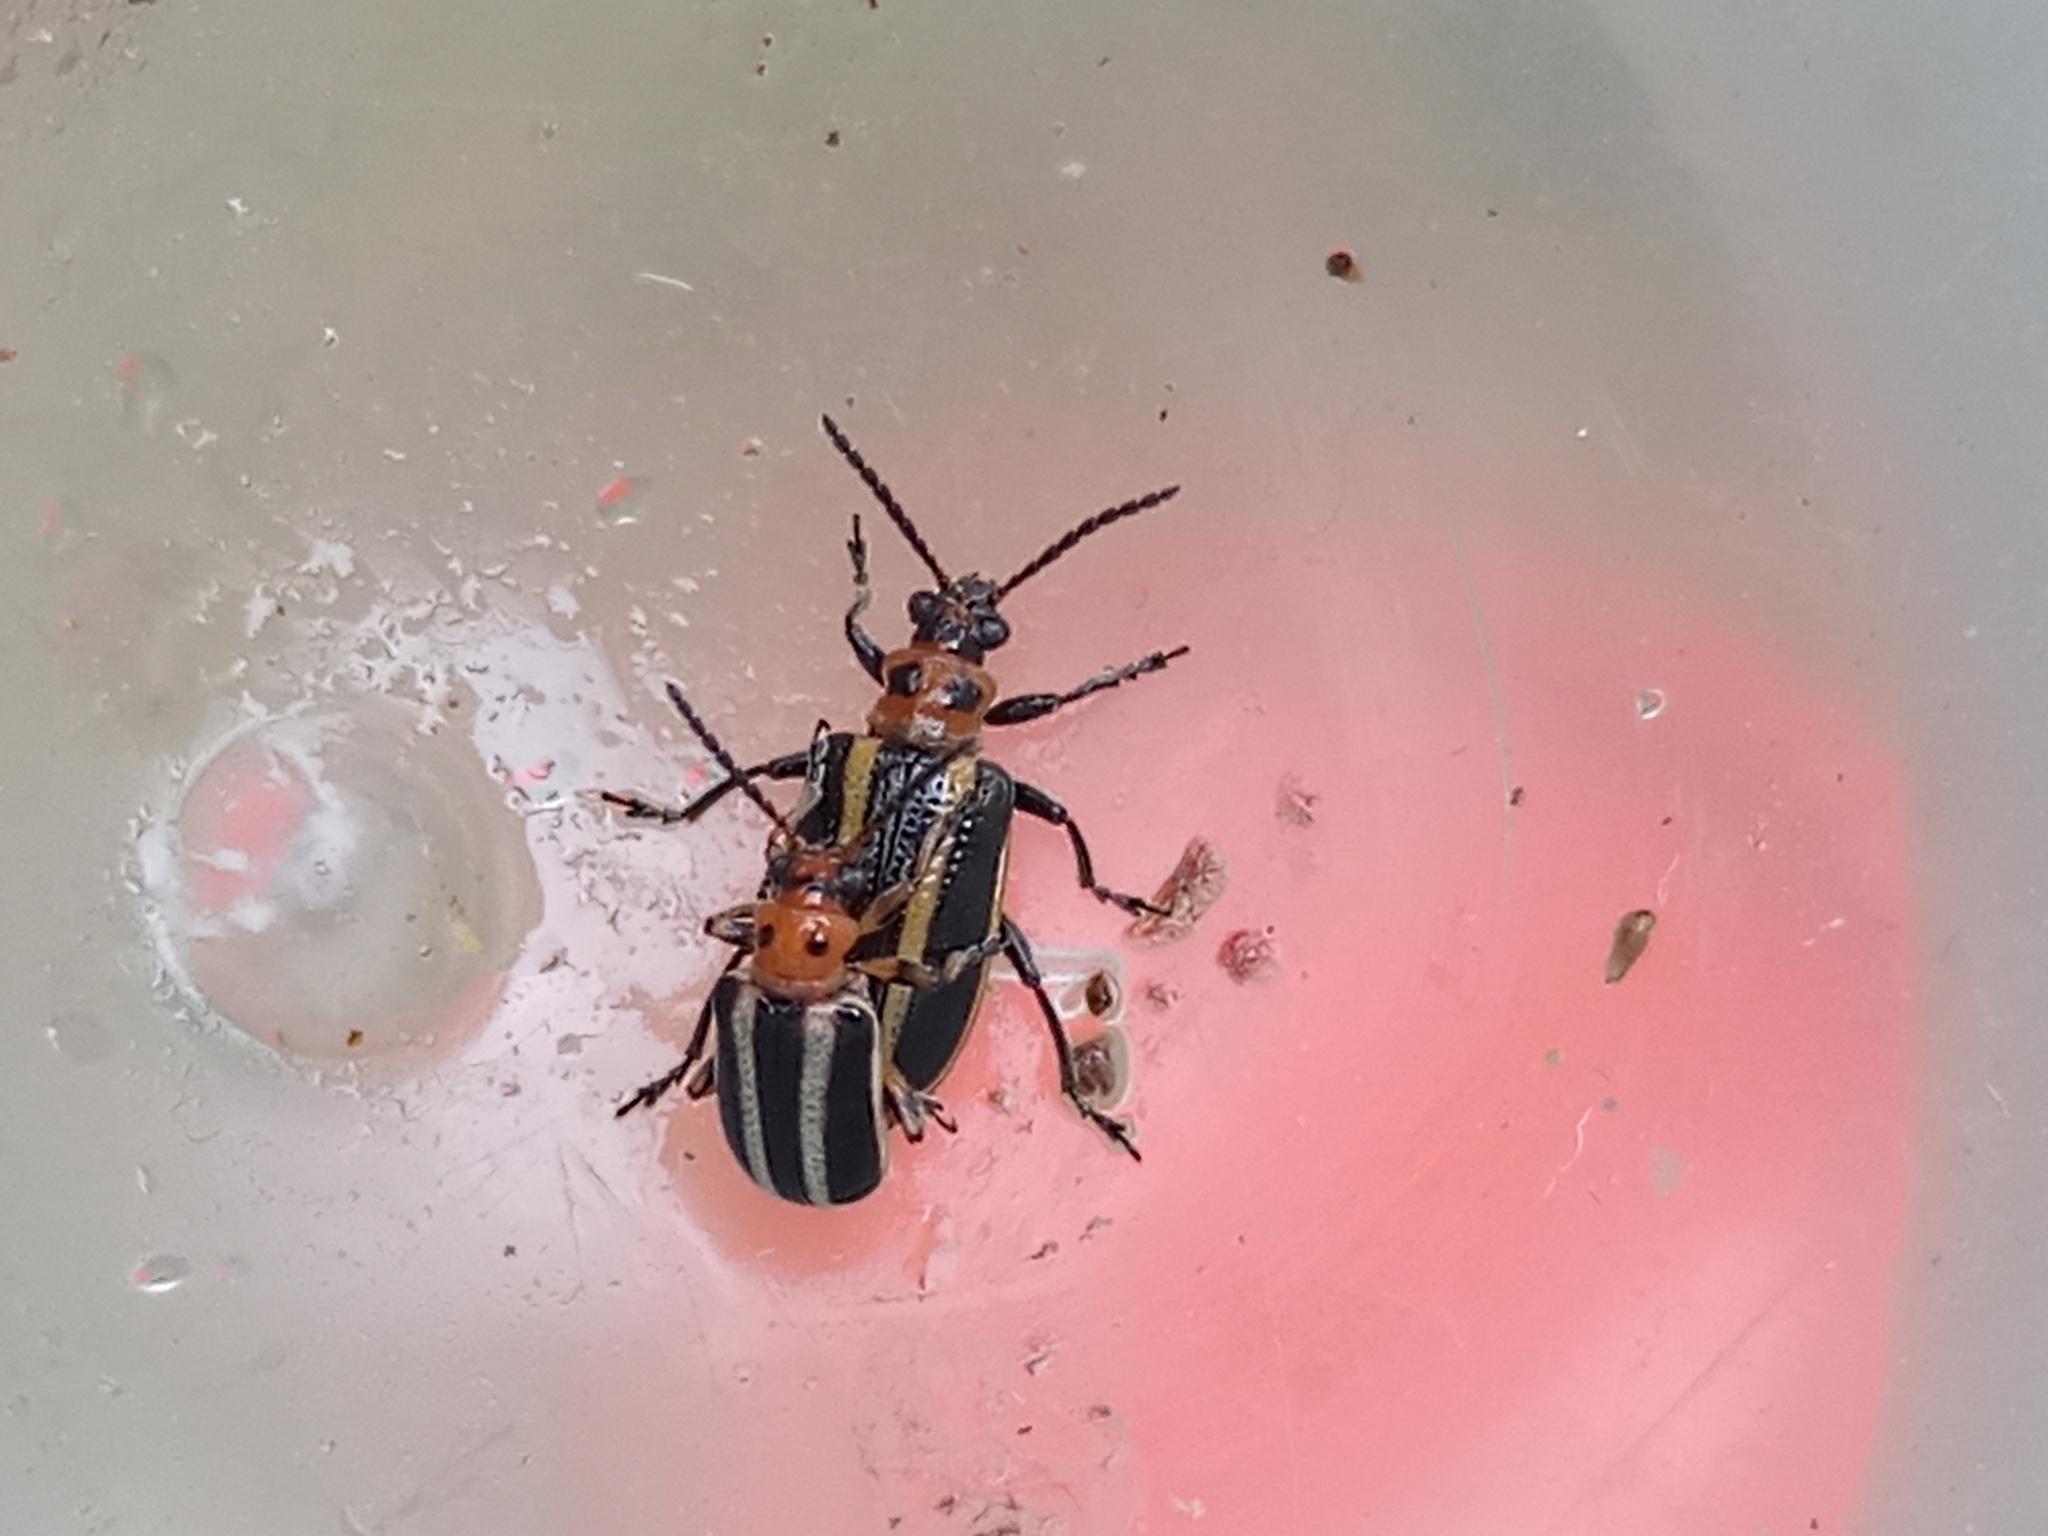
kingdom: Animalia
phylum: Arthropoda
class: Insecta
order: Coleoptera
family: Chrysomelidae
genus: Lema
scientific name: Lema bilineata
